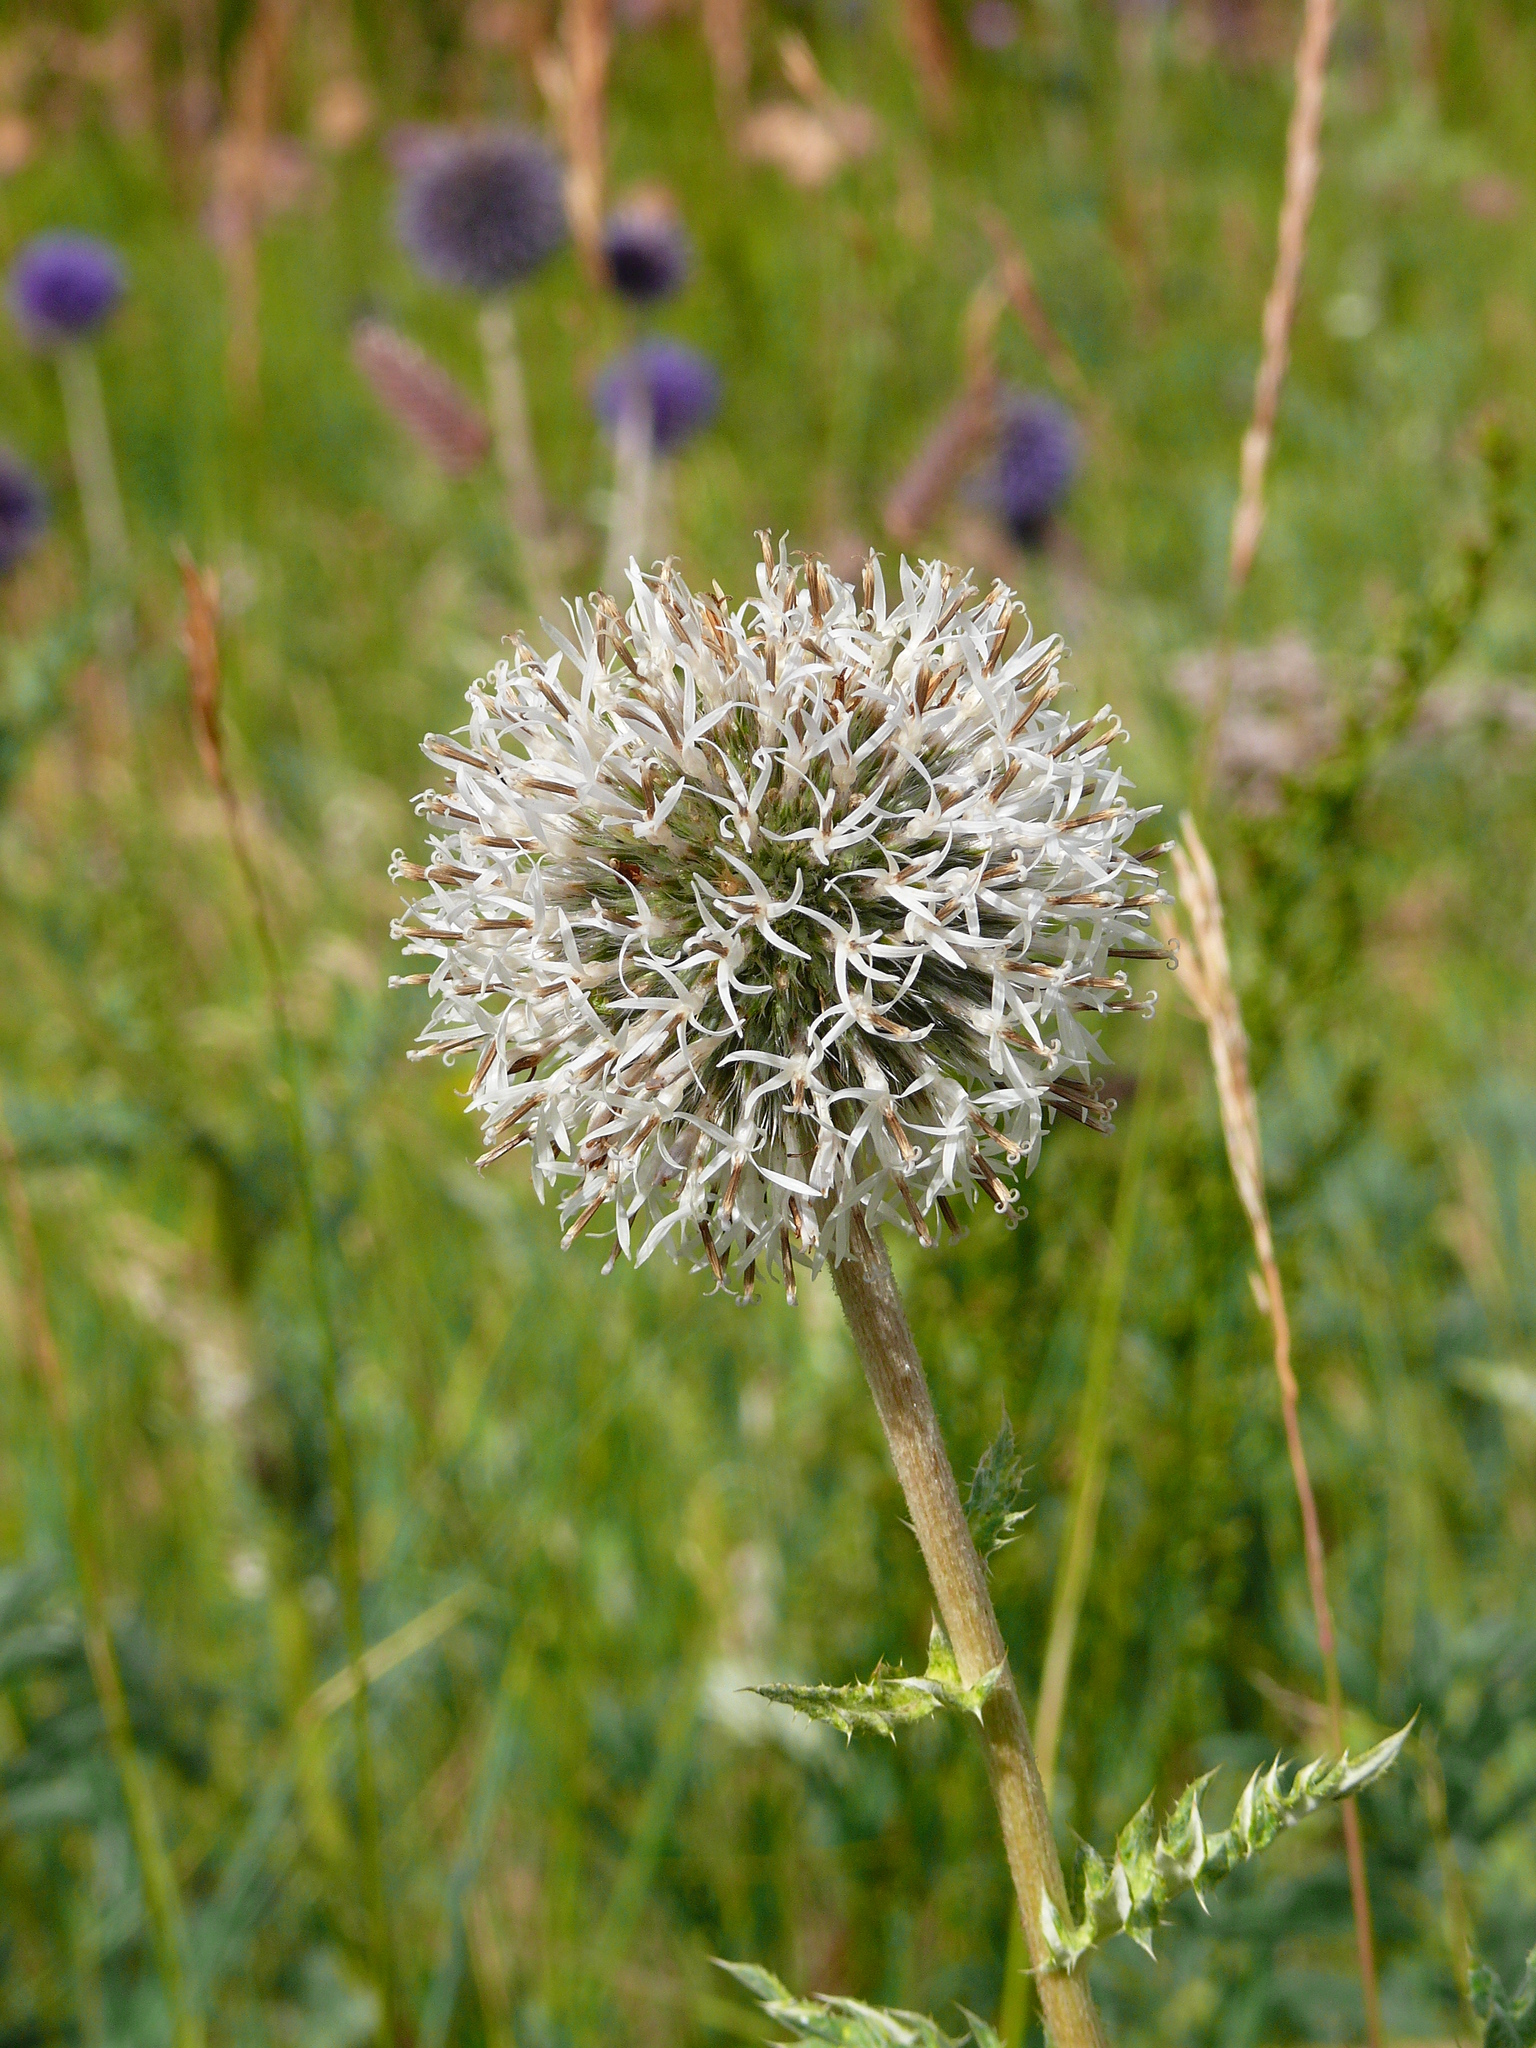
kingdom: Plantae
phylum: Tracheophyta
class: Magnoliopsida
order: Asterales
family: Asteraceae
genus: Echinops
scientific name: Echinops davuricus
